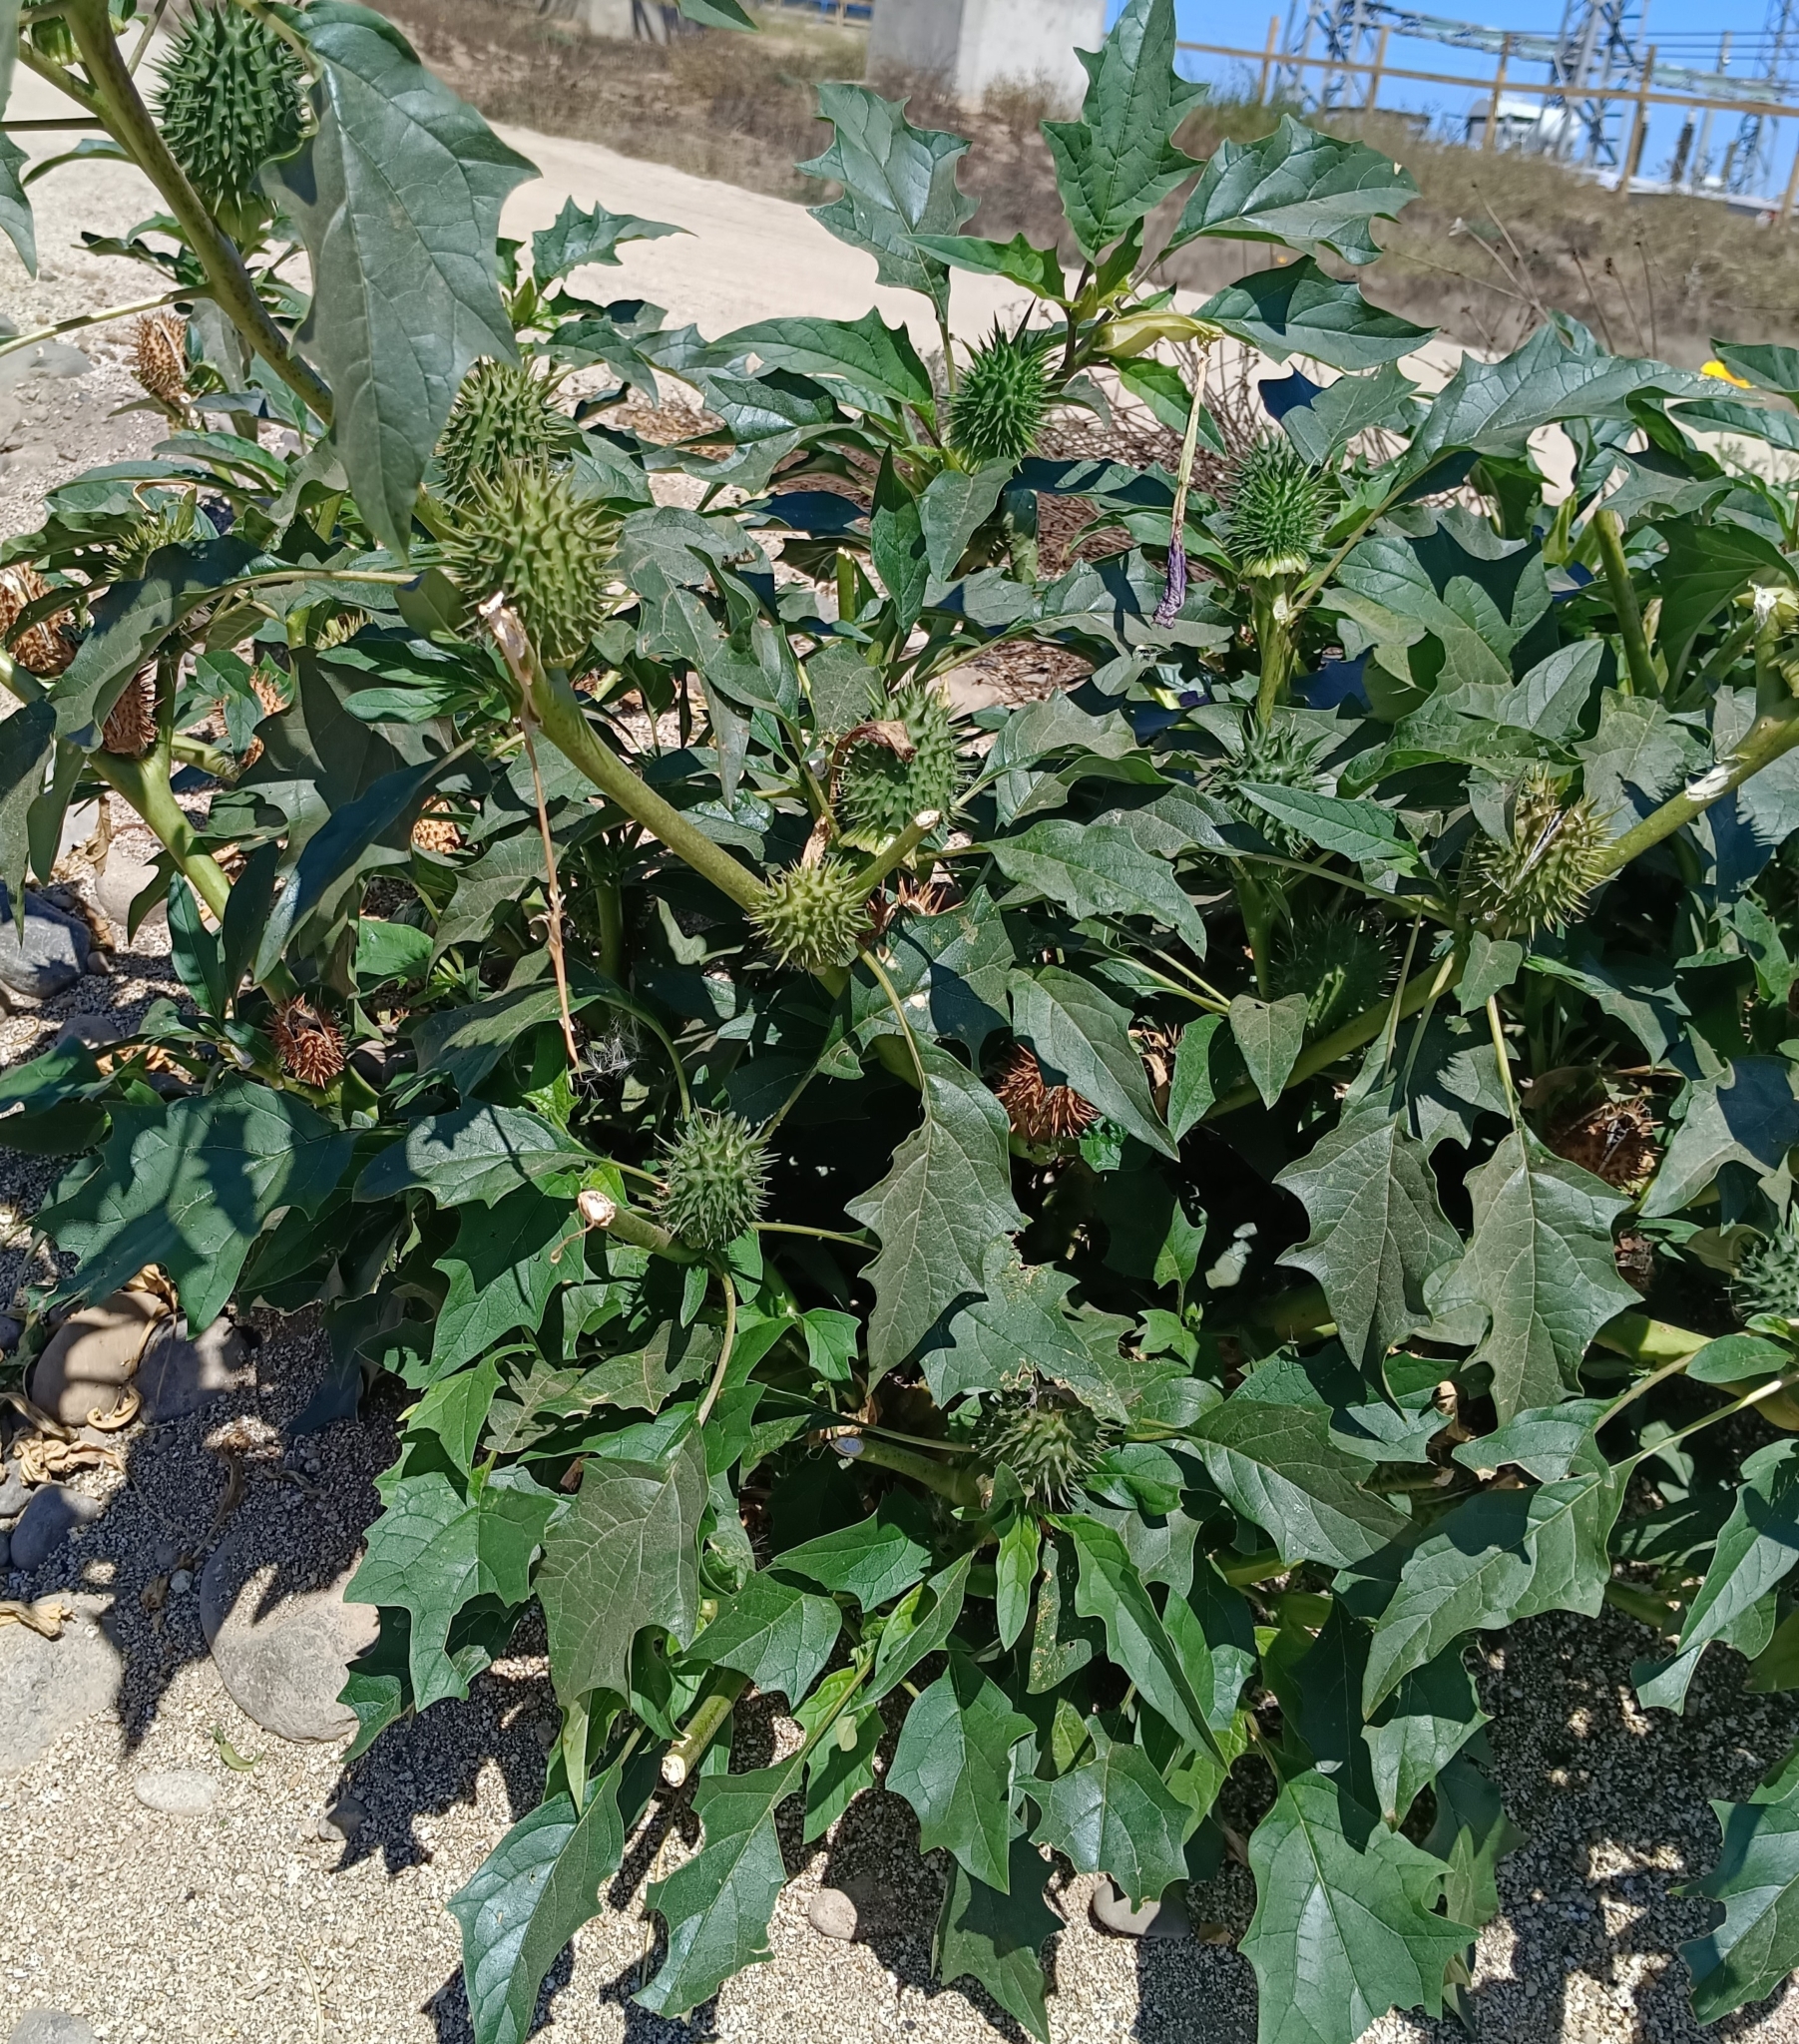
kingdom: Plantae
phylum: Tracheophyta
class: Magnoliopsida
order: Solanales
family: Solanaceae
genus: Datura
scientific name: Datura stramonium
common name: Thorn-apple
